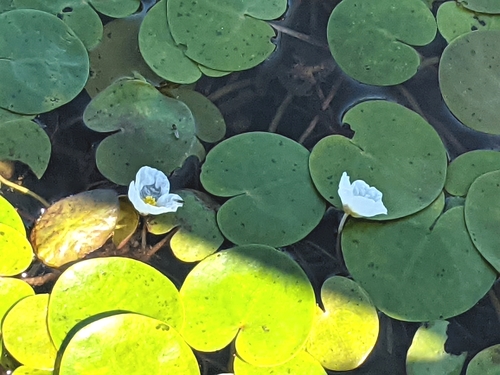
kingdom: Plantae
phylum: Tracheophyta
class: Liliopsida
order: Alismatales
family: Hydrocharitaceae
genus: Hydrocharis
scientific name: Hydrocharis morsus-ranae
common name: European frog-bit
